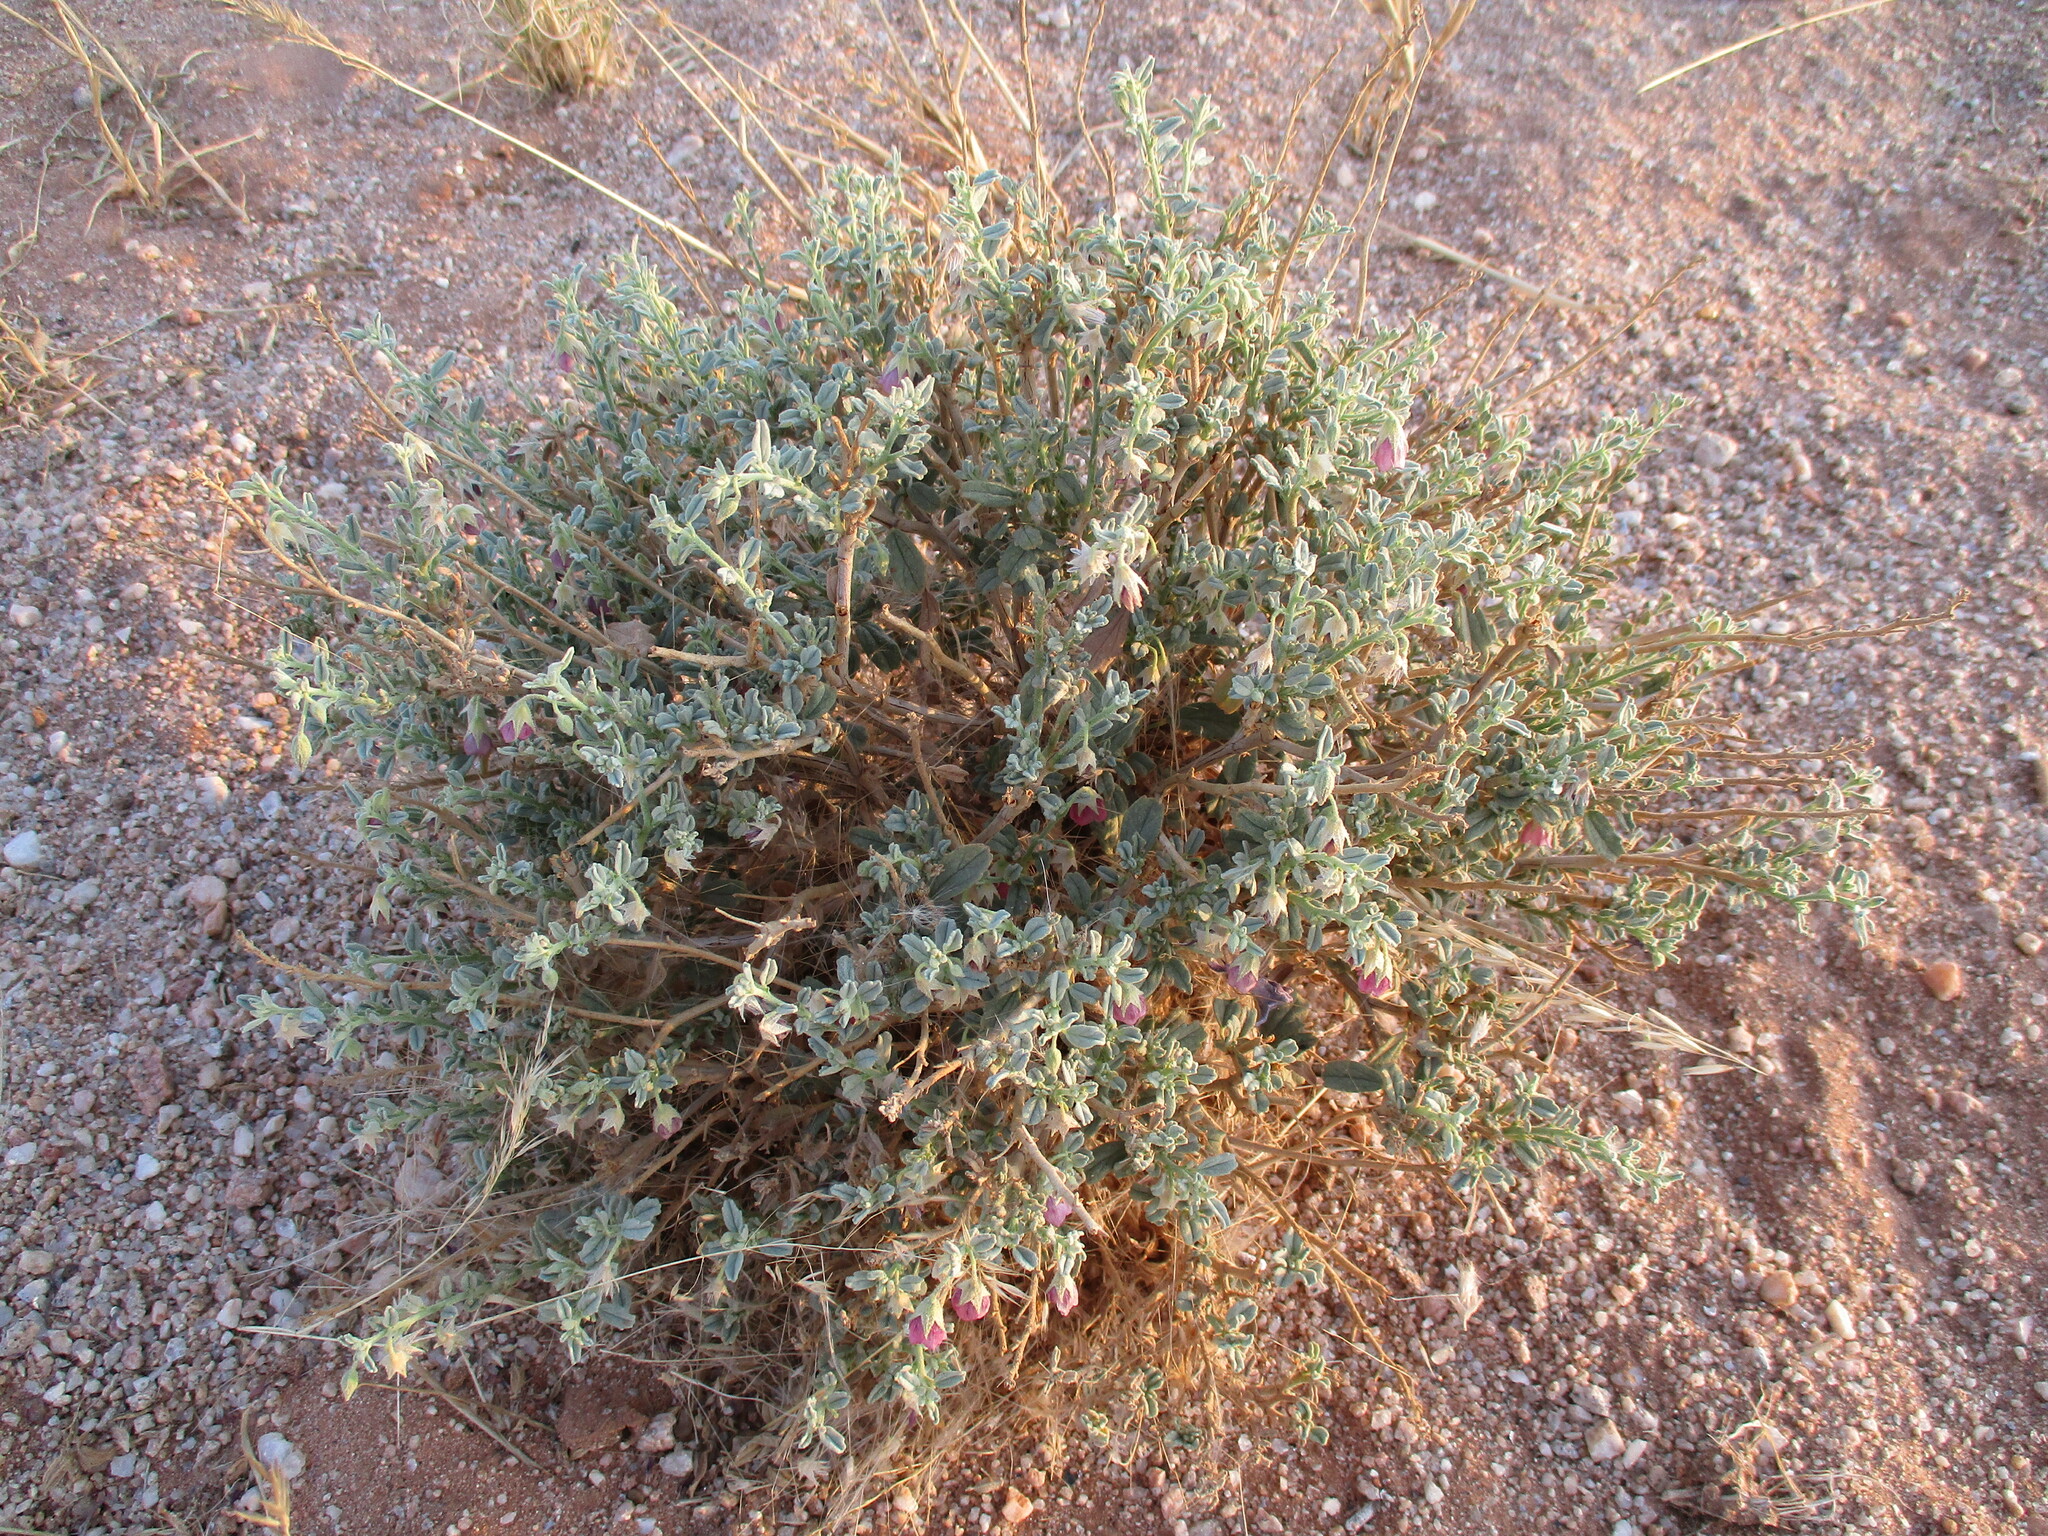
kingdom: Plantae
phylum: Tracheophyta
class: Magnoliopsida
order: Malvales
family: Malvaceae
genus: Hermannia
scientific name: Hermannia affinis
